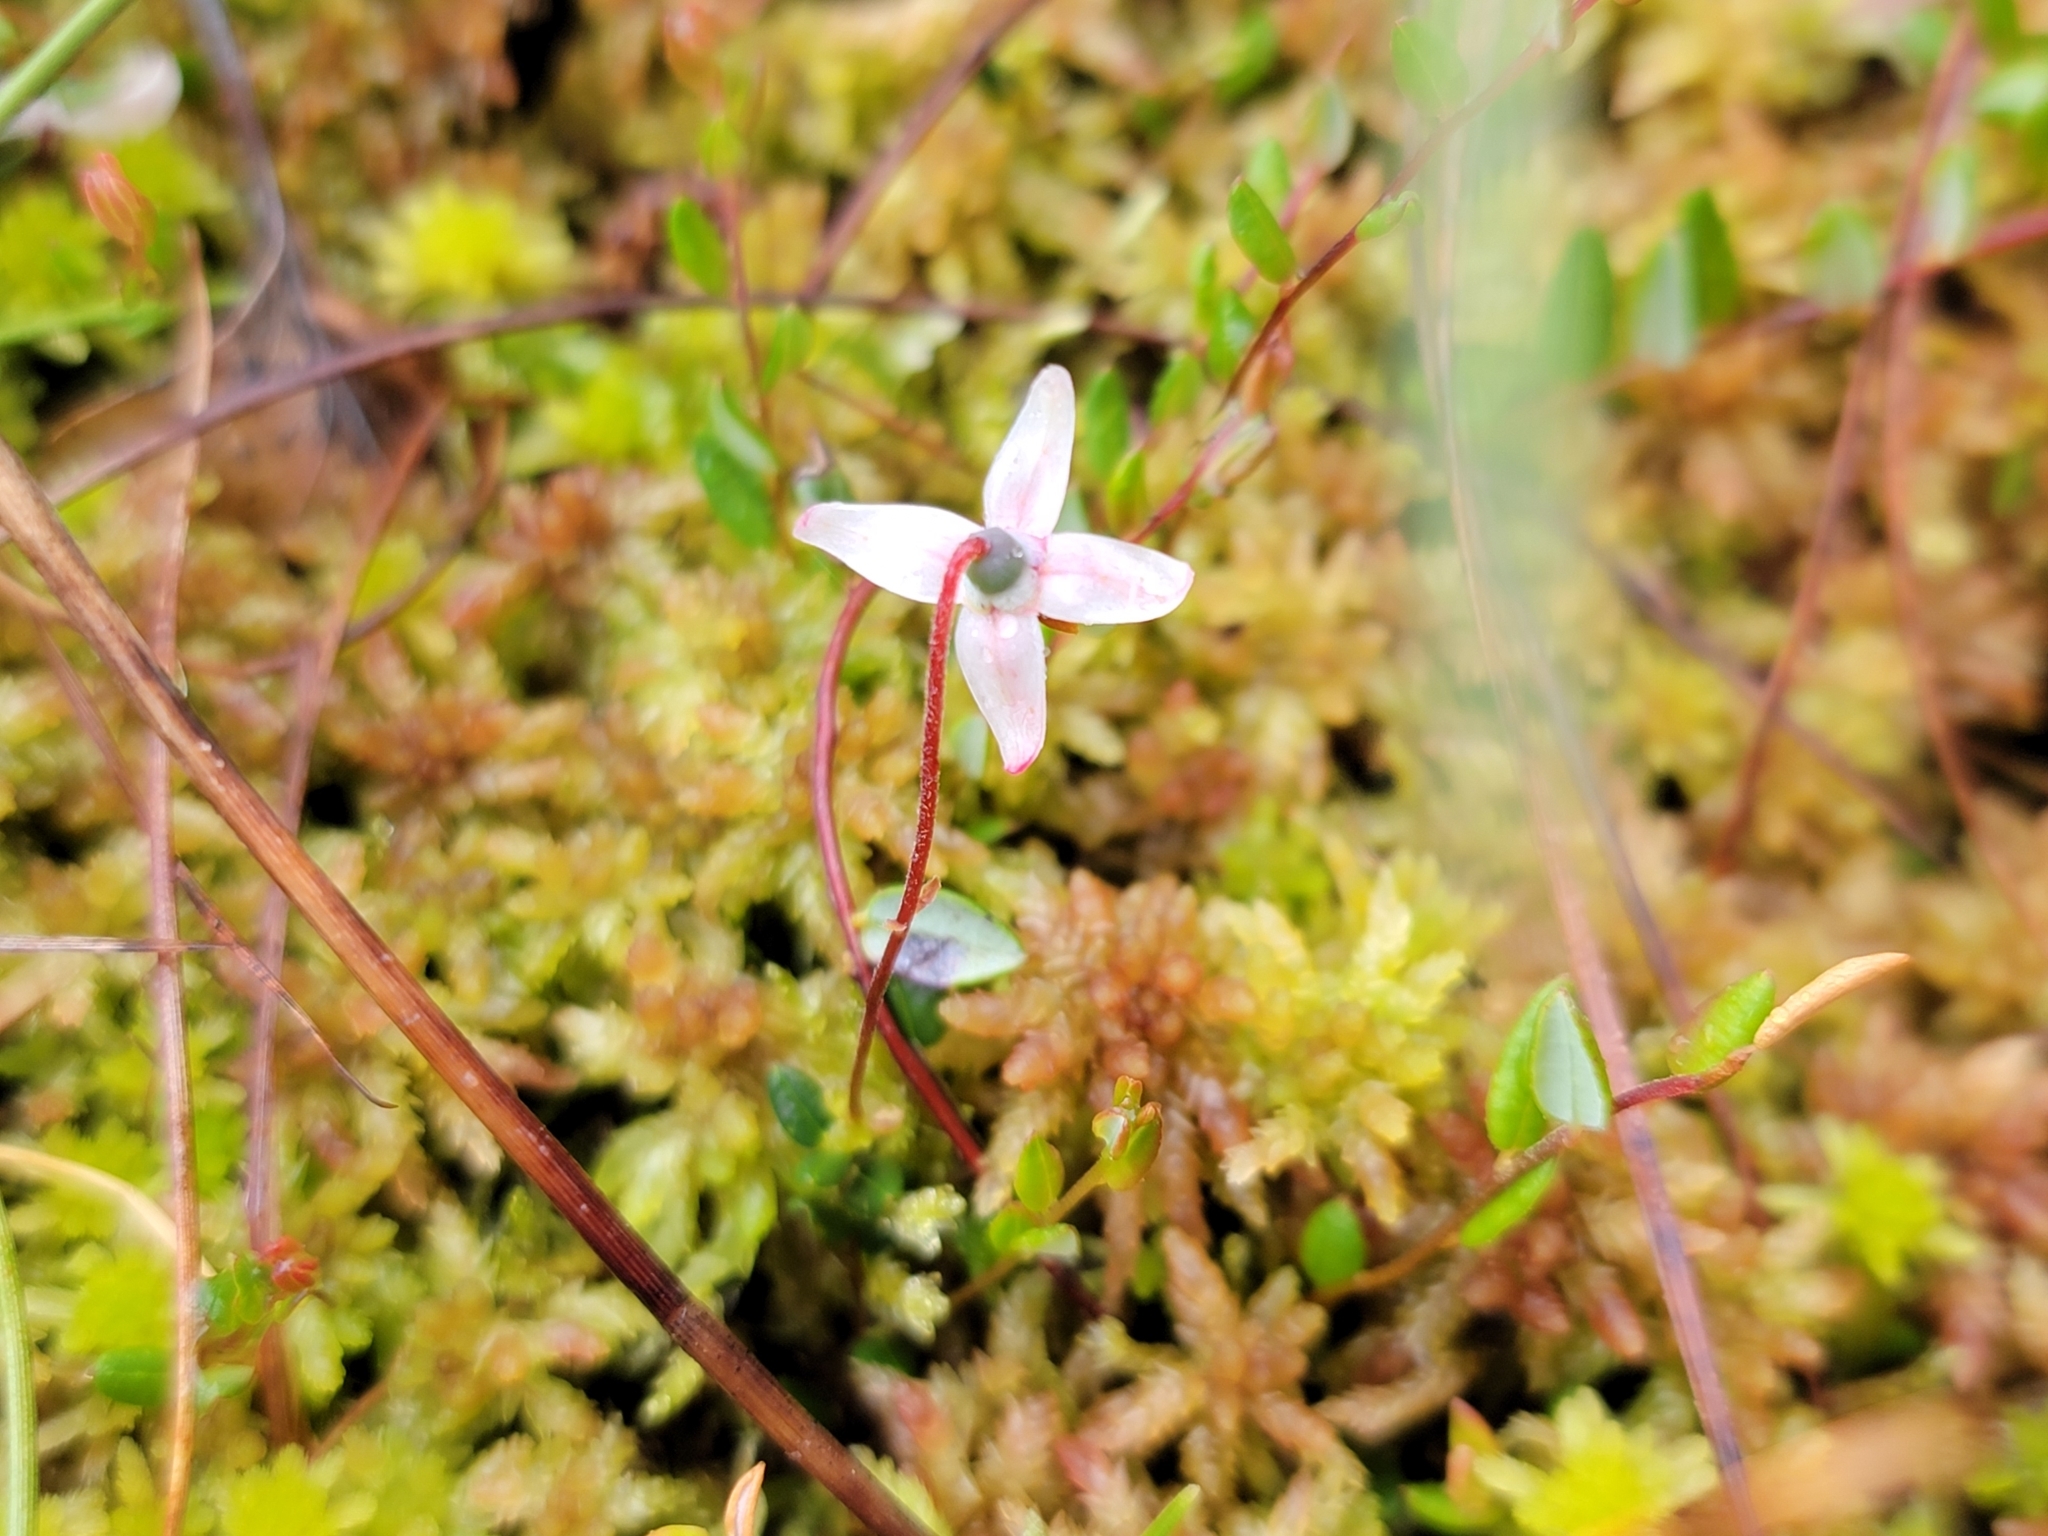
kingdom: Plantae
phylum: Tracheophyta
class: Magnoliopsida
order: Ericales
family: Ericaceae
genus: Vaccinium
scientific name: Vaccinium oxycoccos
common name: Cranberry
